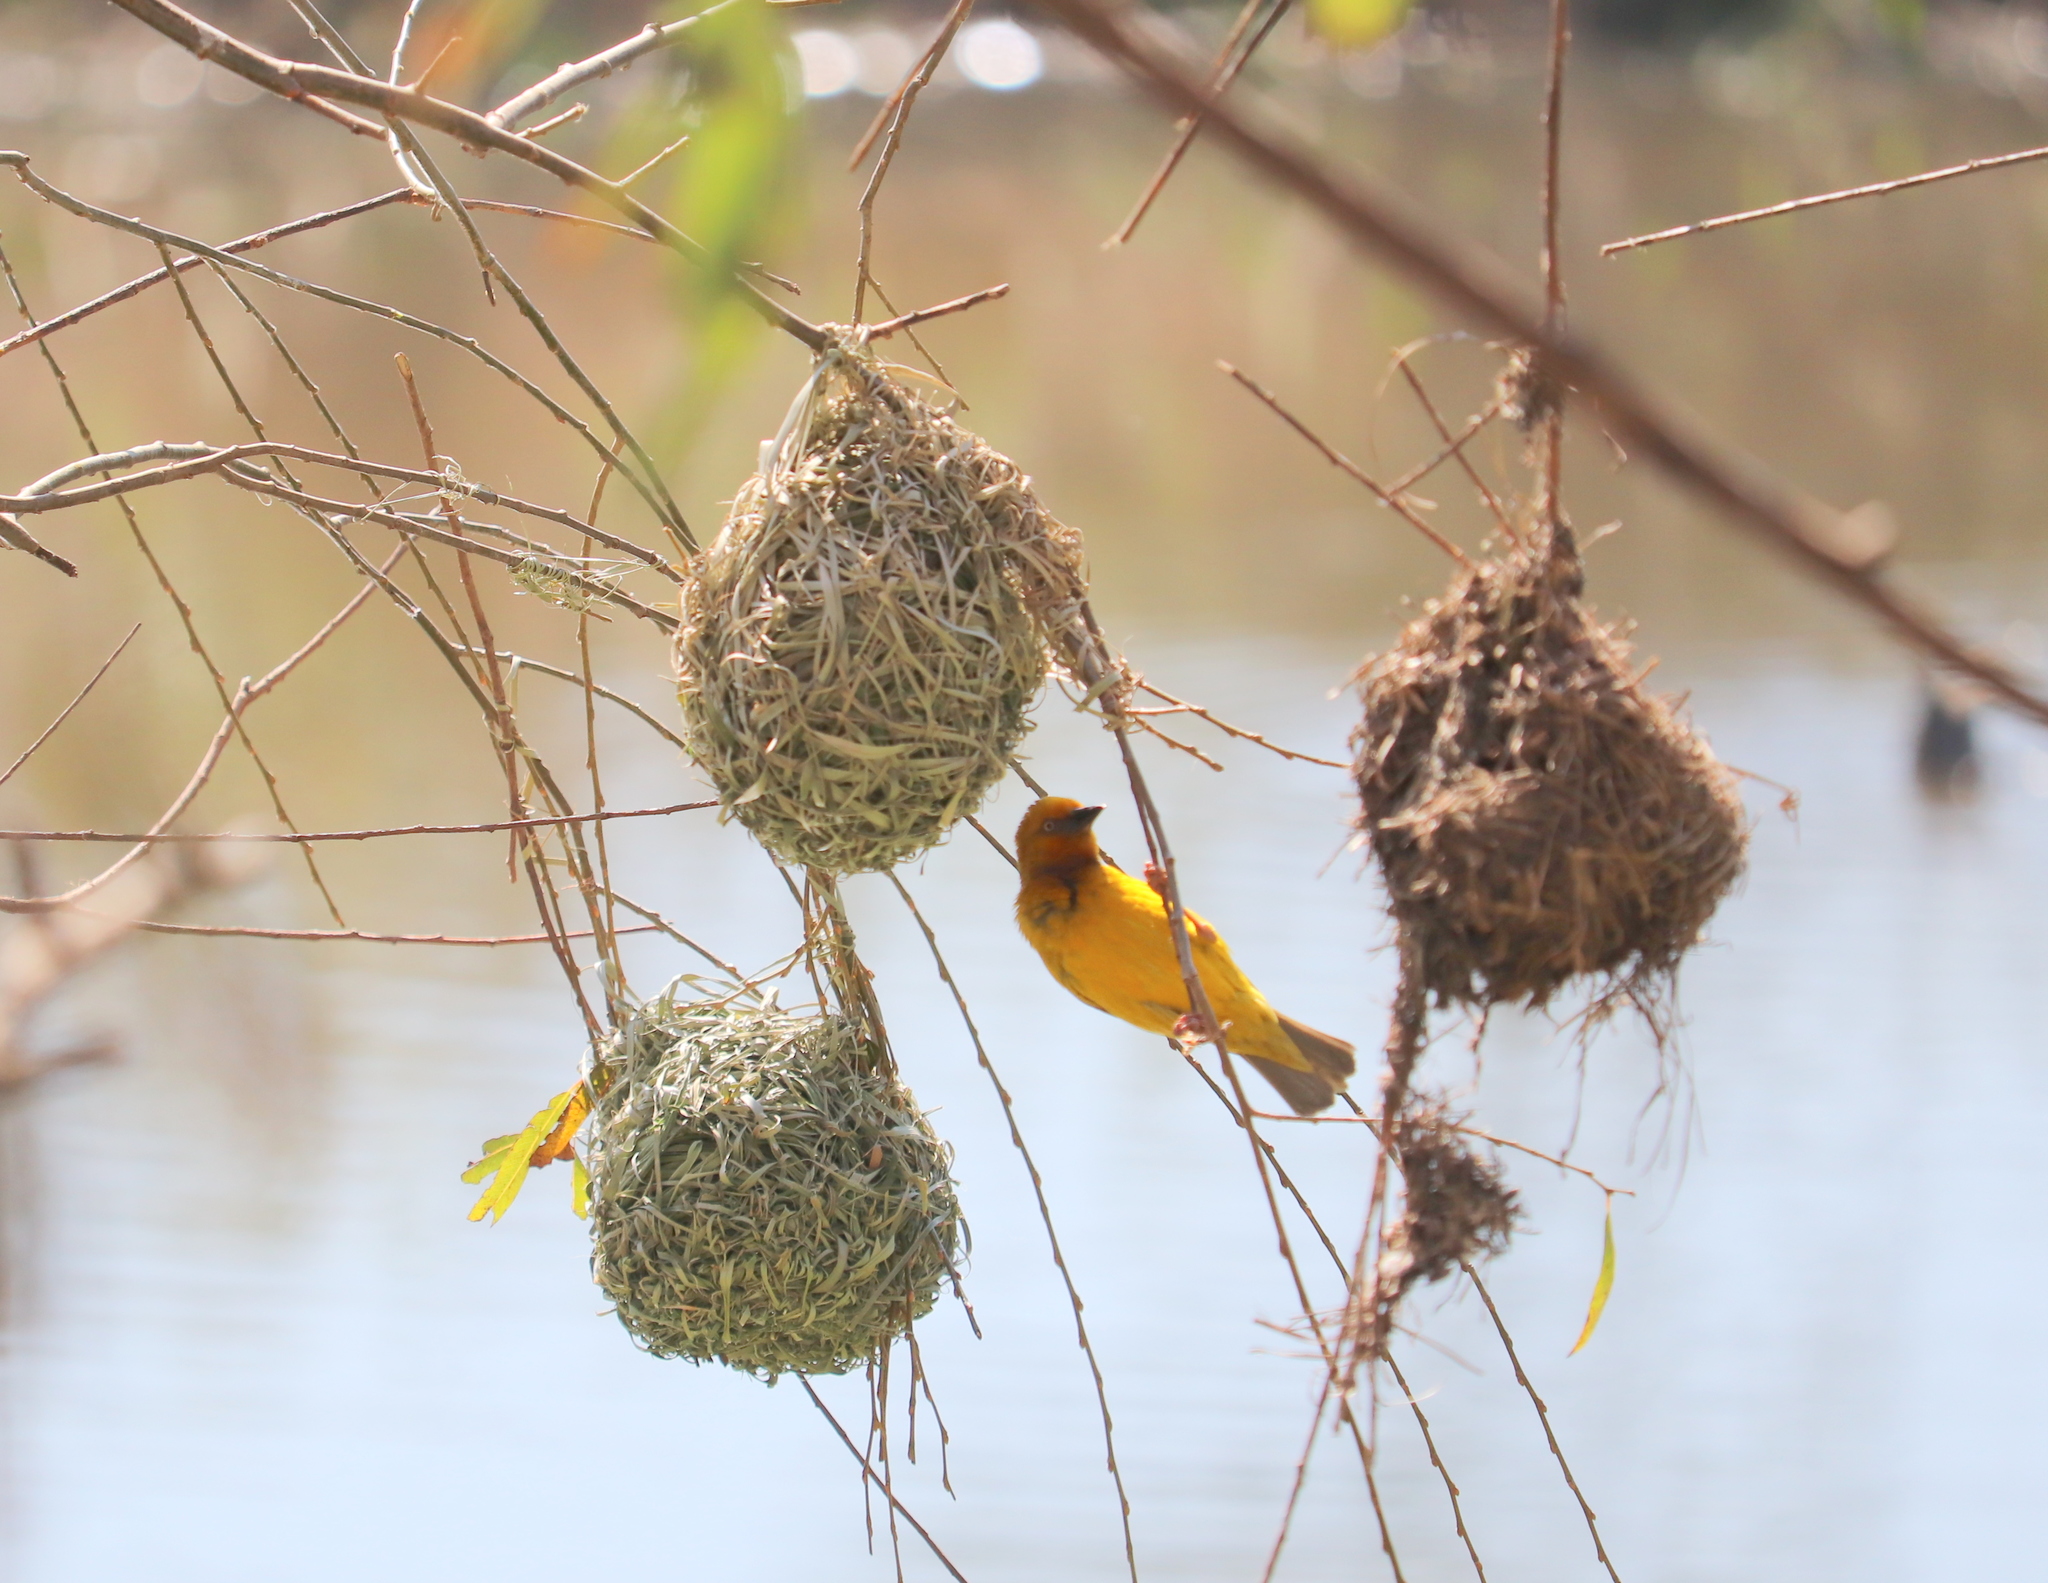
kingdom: Animalia
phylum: Chordata
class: Aves
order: Passeriformes
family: Ploceidae
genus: Ploceus
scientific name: Ploceus capensis
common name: Cape weaver
